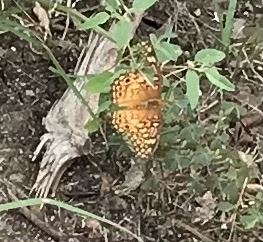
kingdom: Animalia
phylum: Arthropoda
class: Insecta
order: Lepidoptera
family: Nymphalidae
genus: Euptoieta
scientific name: Euptoieta claudia
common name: Variegated fritillary
